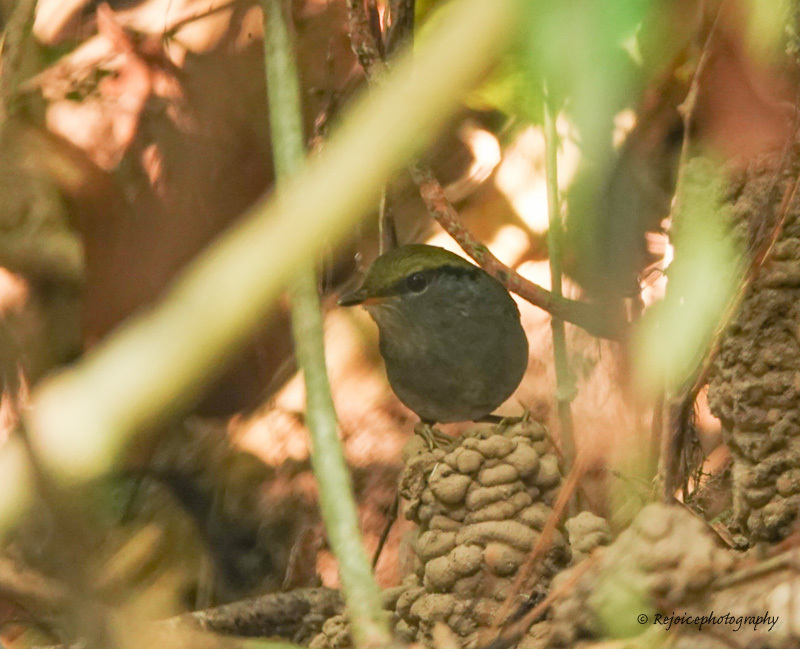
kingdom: Animalia
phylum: Chordata
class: Aves
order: Passeriformes
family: Cettiidae
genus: Tesia
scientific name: Tesia cyaniventer
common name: Grey-bellied tesia
